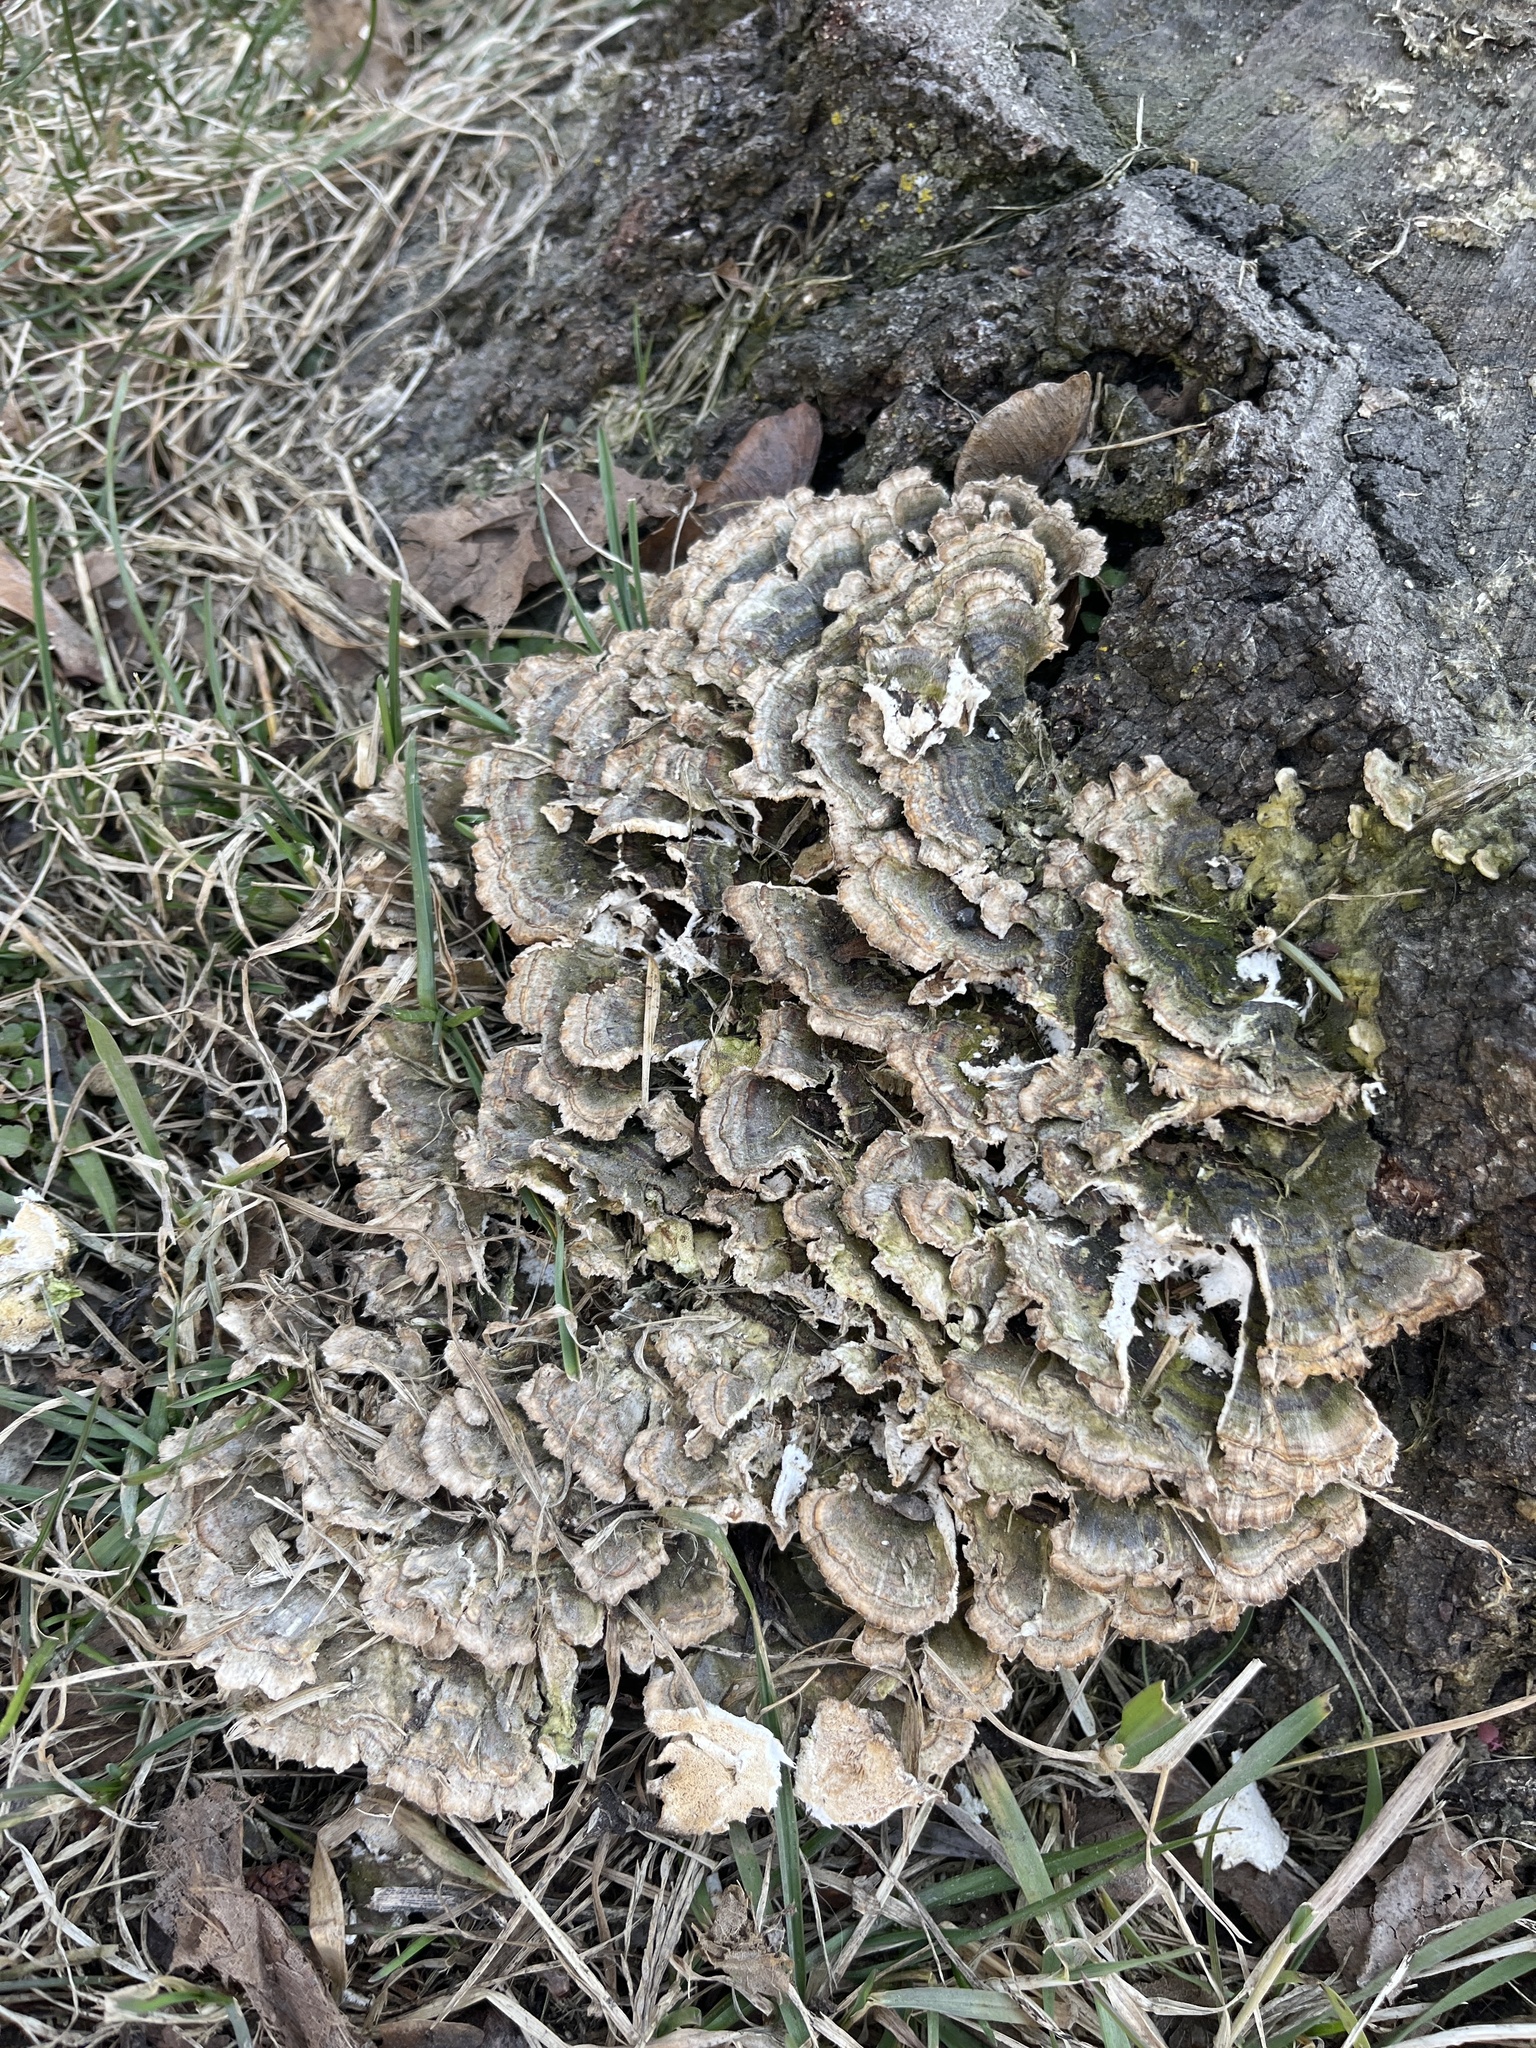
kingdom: Fungi
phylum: Basidiomycota
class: Agaricomycetes
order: Polyporales
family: Polyporaceae
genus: Trametes
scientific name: Trametes versicolor
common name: Turkeytail
